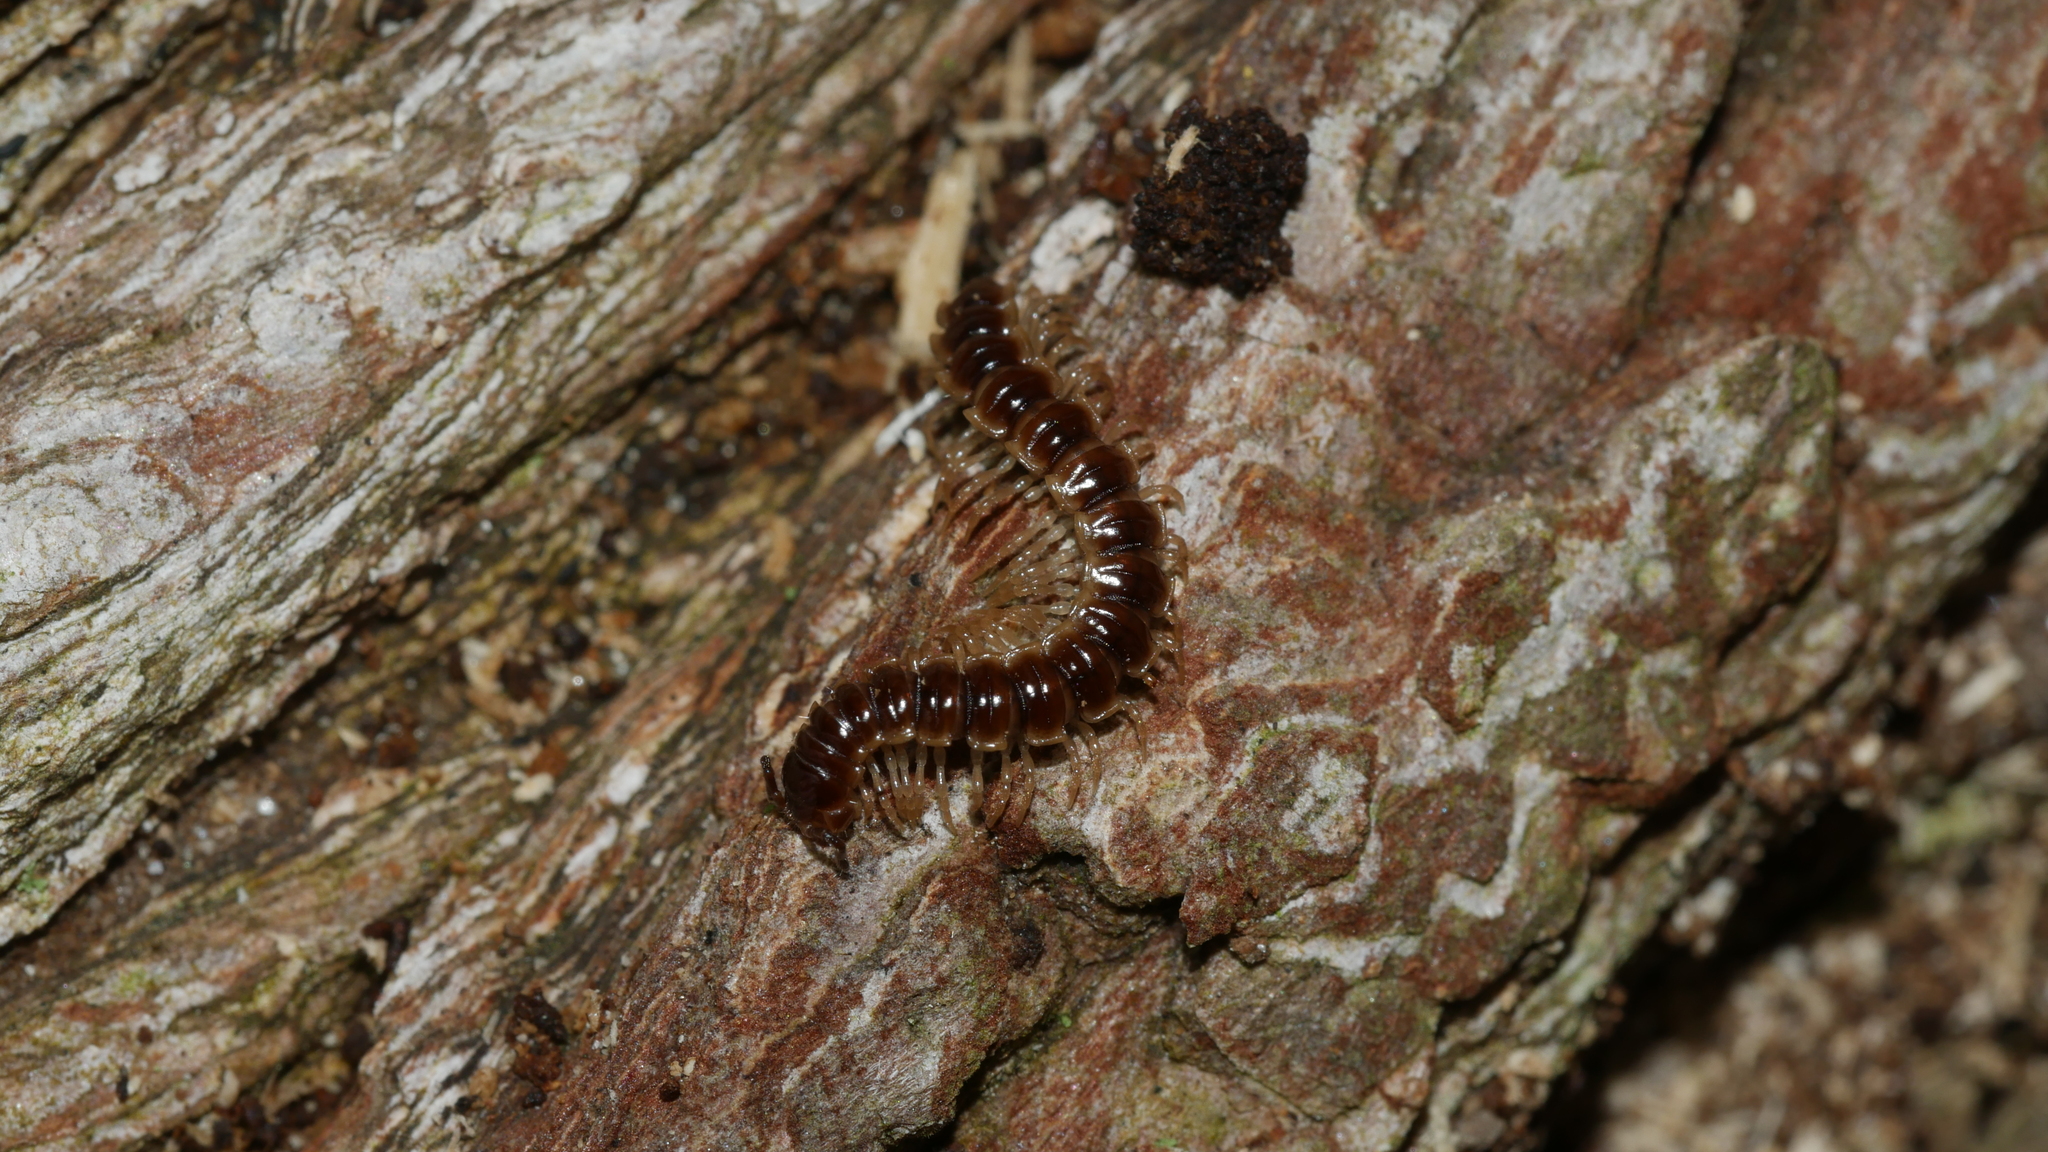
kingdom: Animalia
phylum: Arthropoda
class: Diplopoda
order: Polydesmida
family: Paradoxosomatidae
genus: Oxidus
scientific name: Oxidus gracilis
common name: Greenhouse millipede
